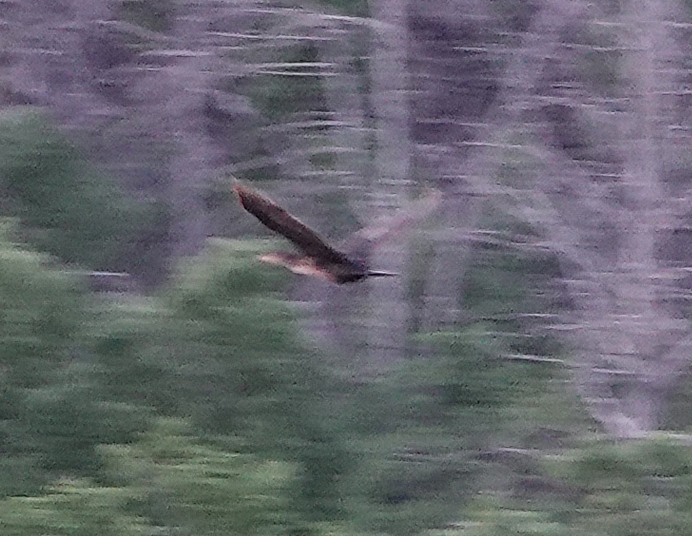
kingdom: Animalia
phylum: Chordata
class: Aves
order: Suliformes
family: Phalacrocoracidae
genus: Phalacrocorax
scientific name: Phalacrocorax auritus
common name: Double-crested cormorant
